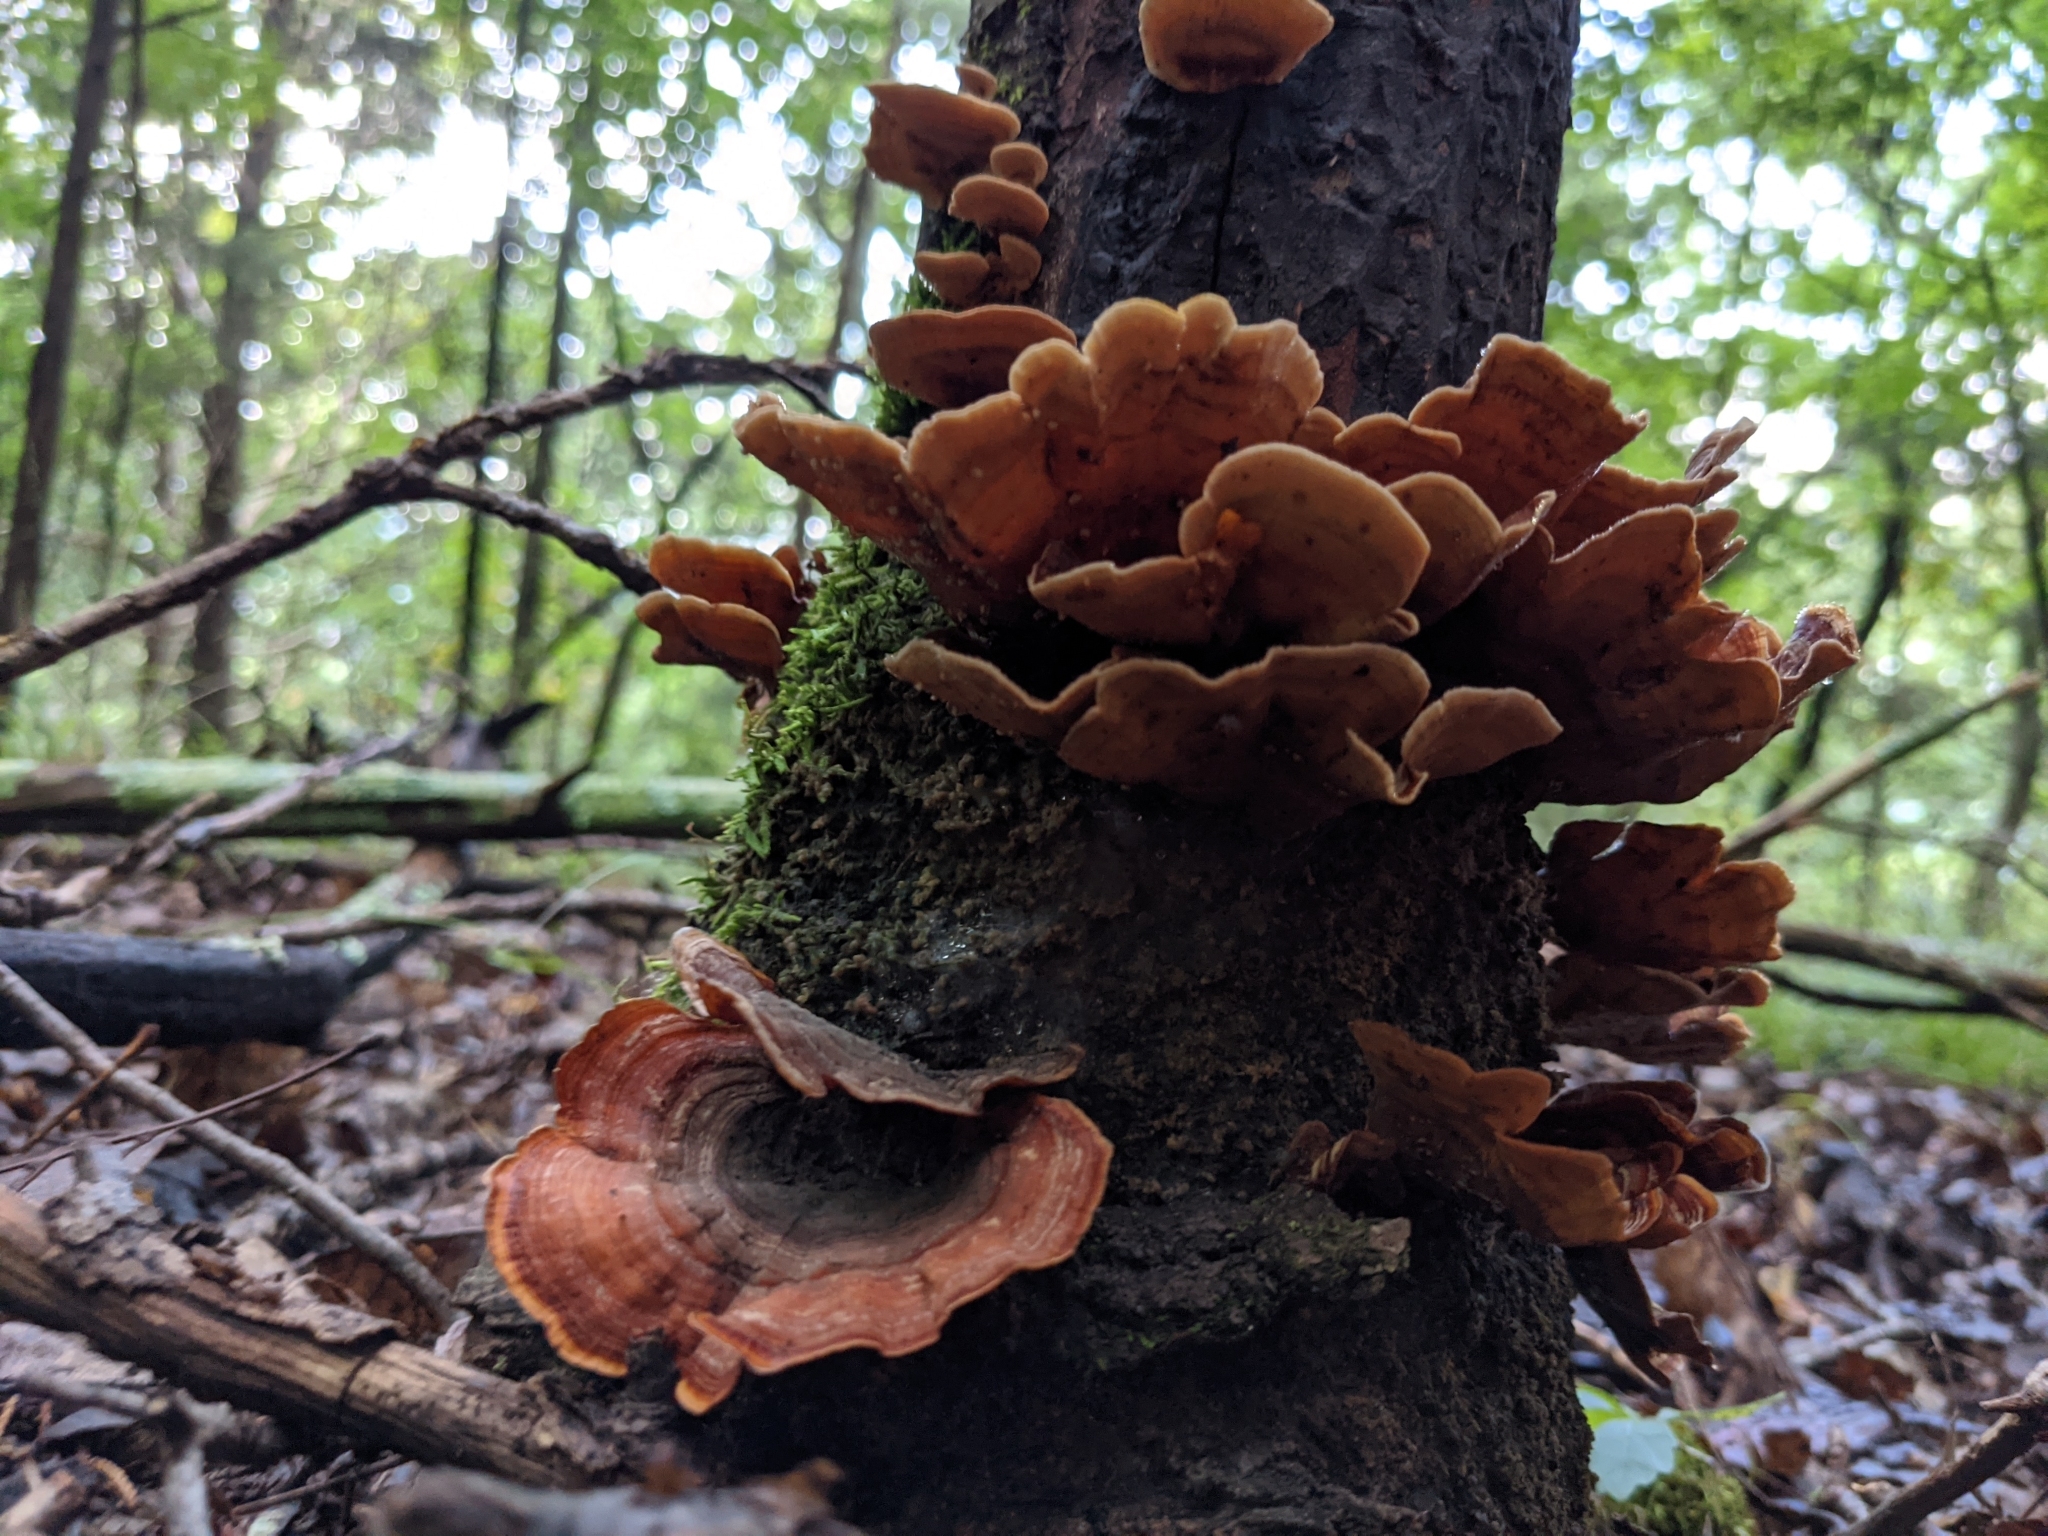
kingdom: Fungi
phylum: Basidiomycota
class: Agaricomycetes
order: Russulales
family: Stereaceae
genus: Stereum
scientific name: Stereum lobatum
